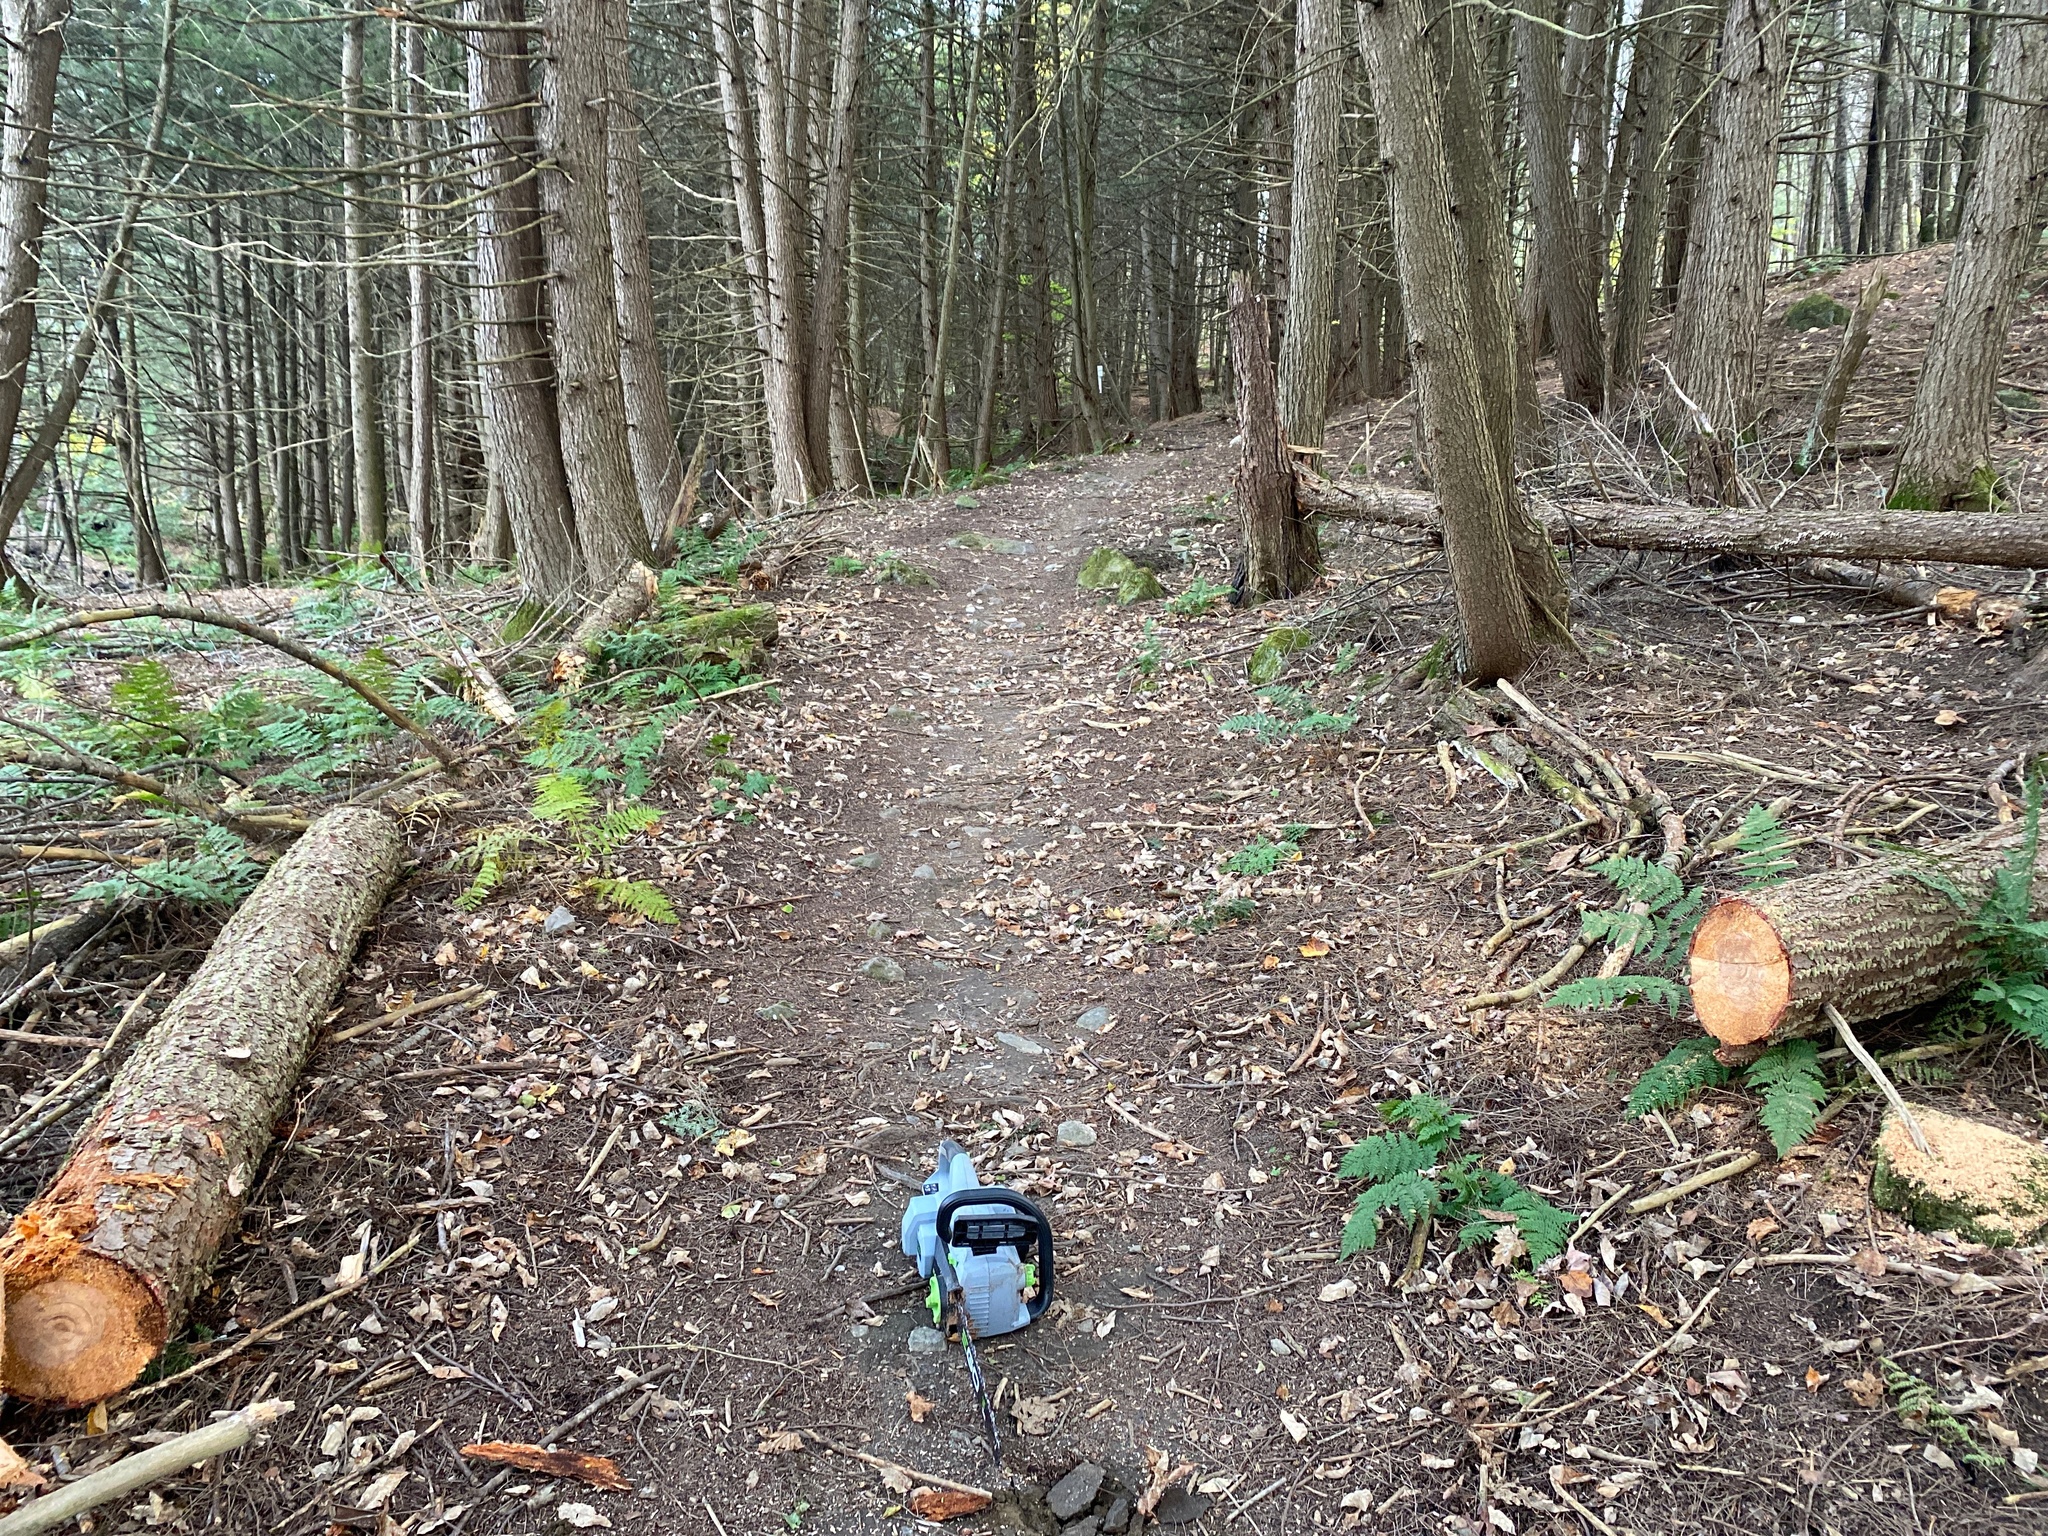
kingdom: Plantae
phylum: Tracheophyta
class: Pinopsida
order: Pinales
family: Pinaceae
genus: Tsuga
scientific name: Tsuga canadensis
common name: Eastern hemlock
